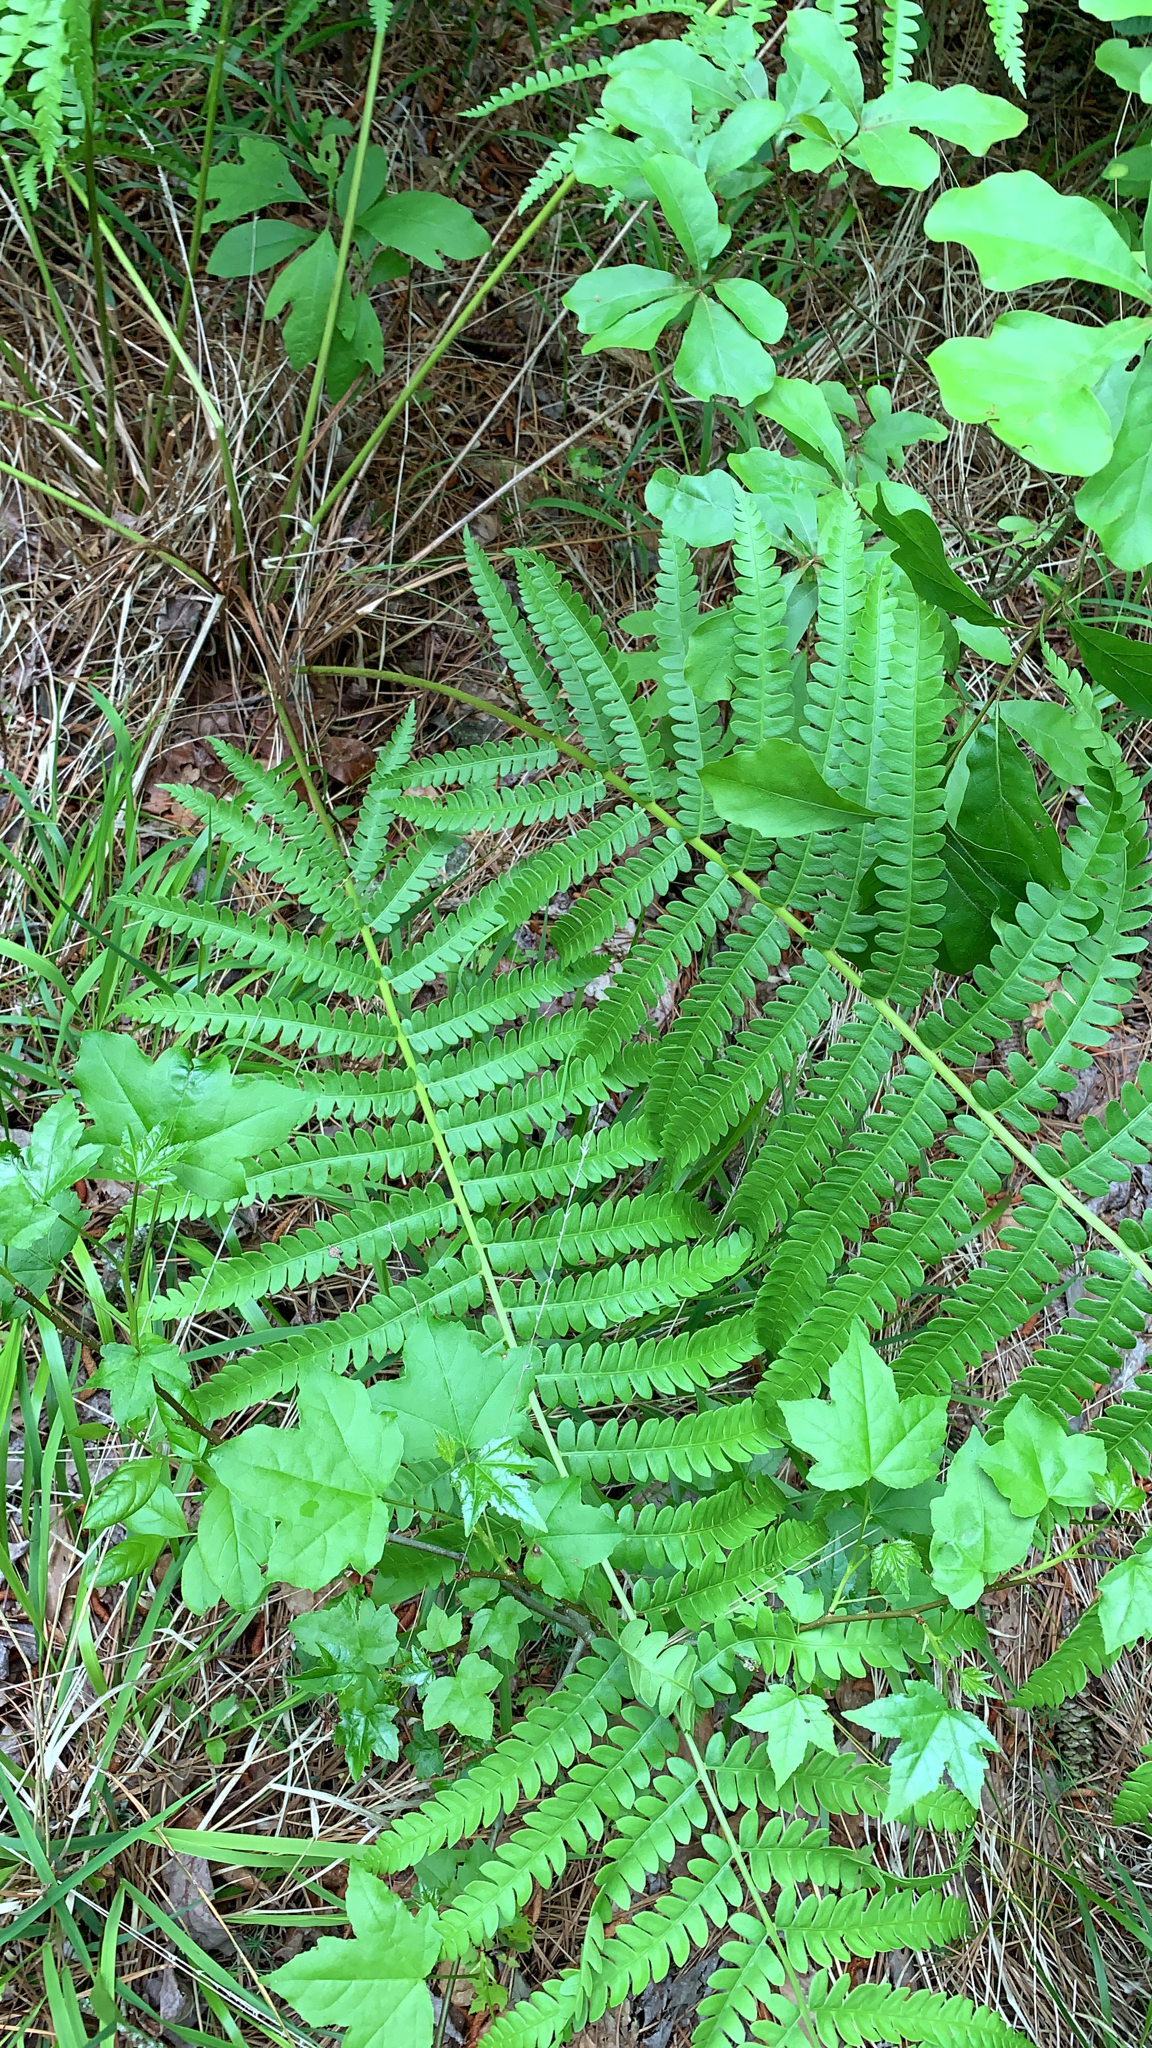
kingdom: Plantae
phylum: Tracheophyta
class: Polypodiopsida
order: Osmundales
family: Osmundaceae
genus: Osmundastrum
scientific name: Osmundastrum cinnamomeum
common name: Cinnamon fern
